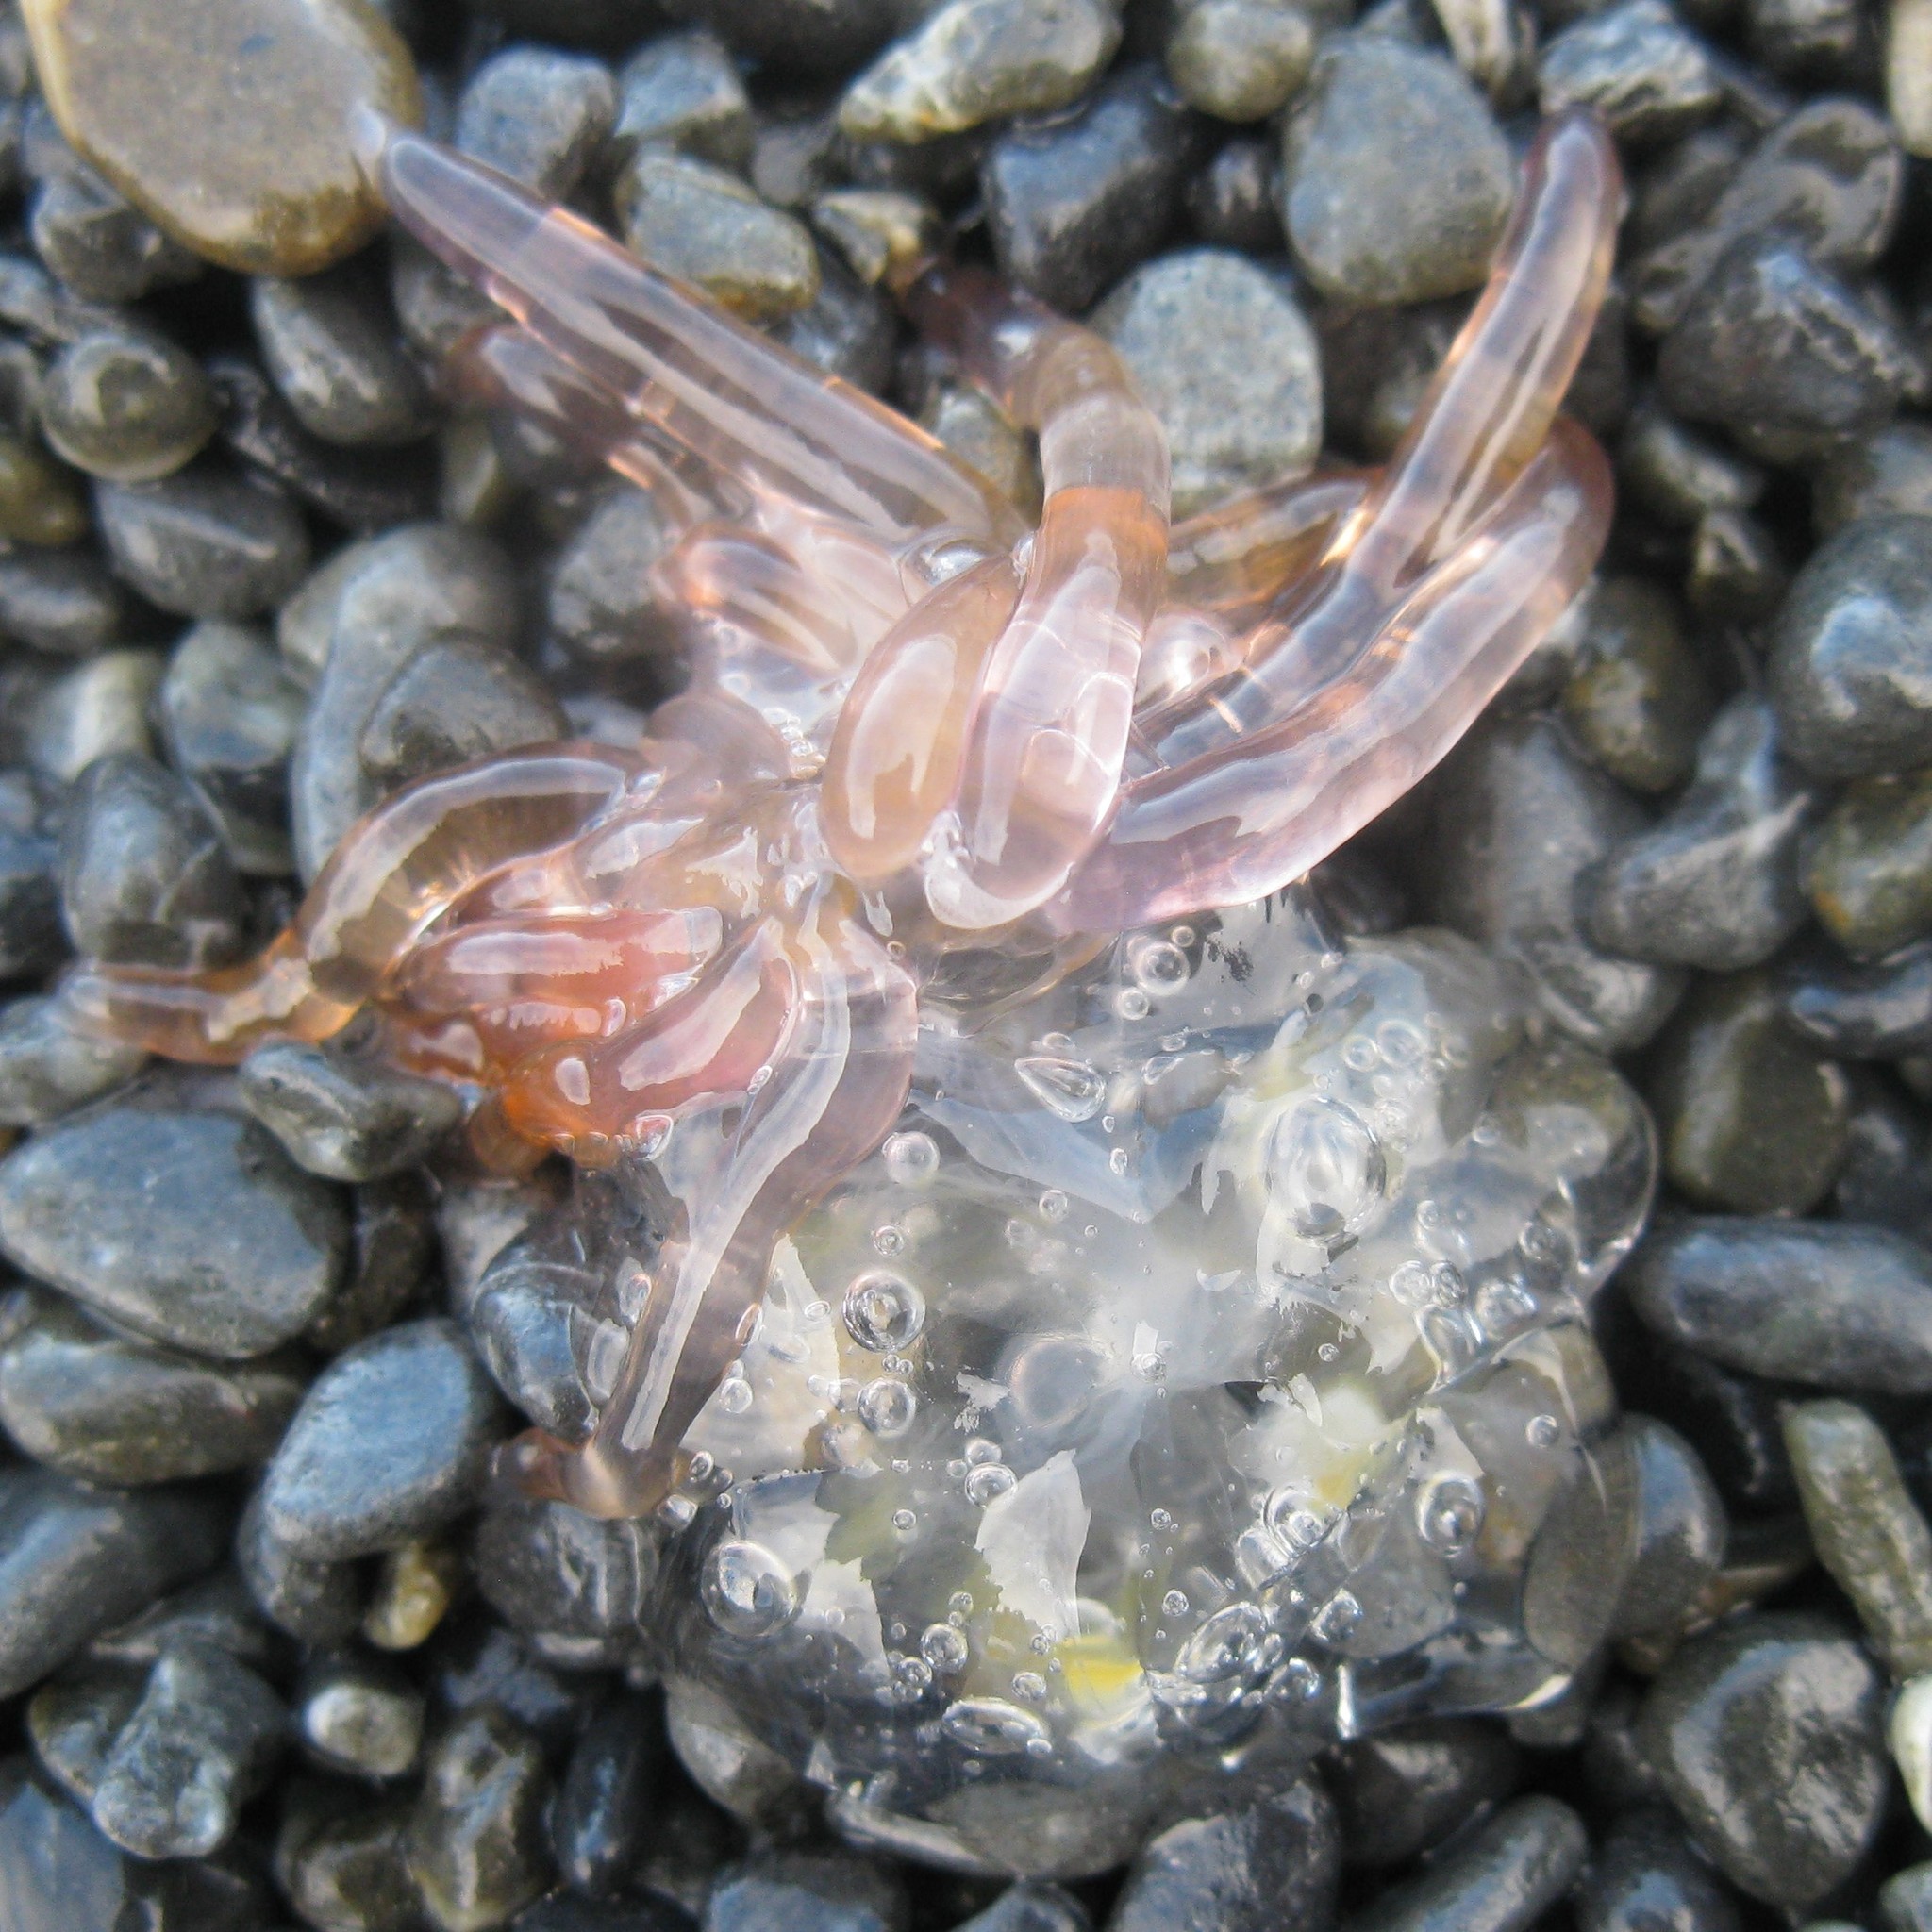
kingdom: Animalia
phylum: Cnidaria
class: Hydrozoa
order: Siphonophorae
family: Physophoridae
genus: Physophora
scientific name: Physophora hydrostatica
